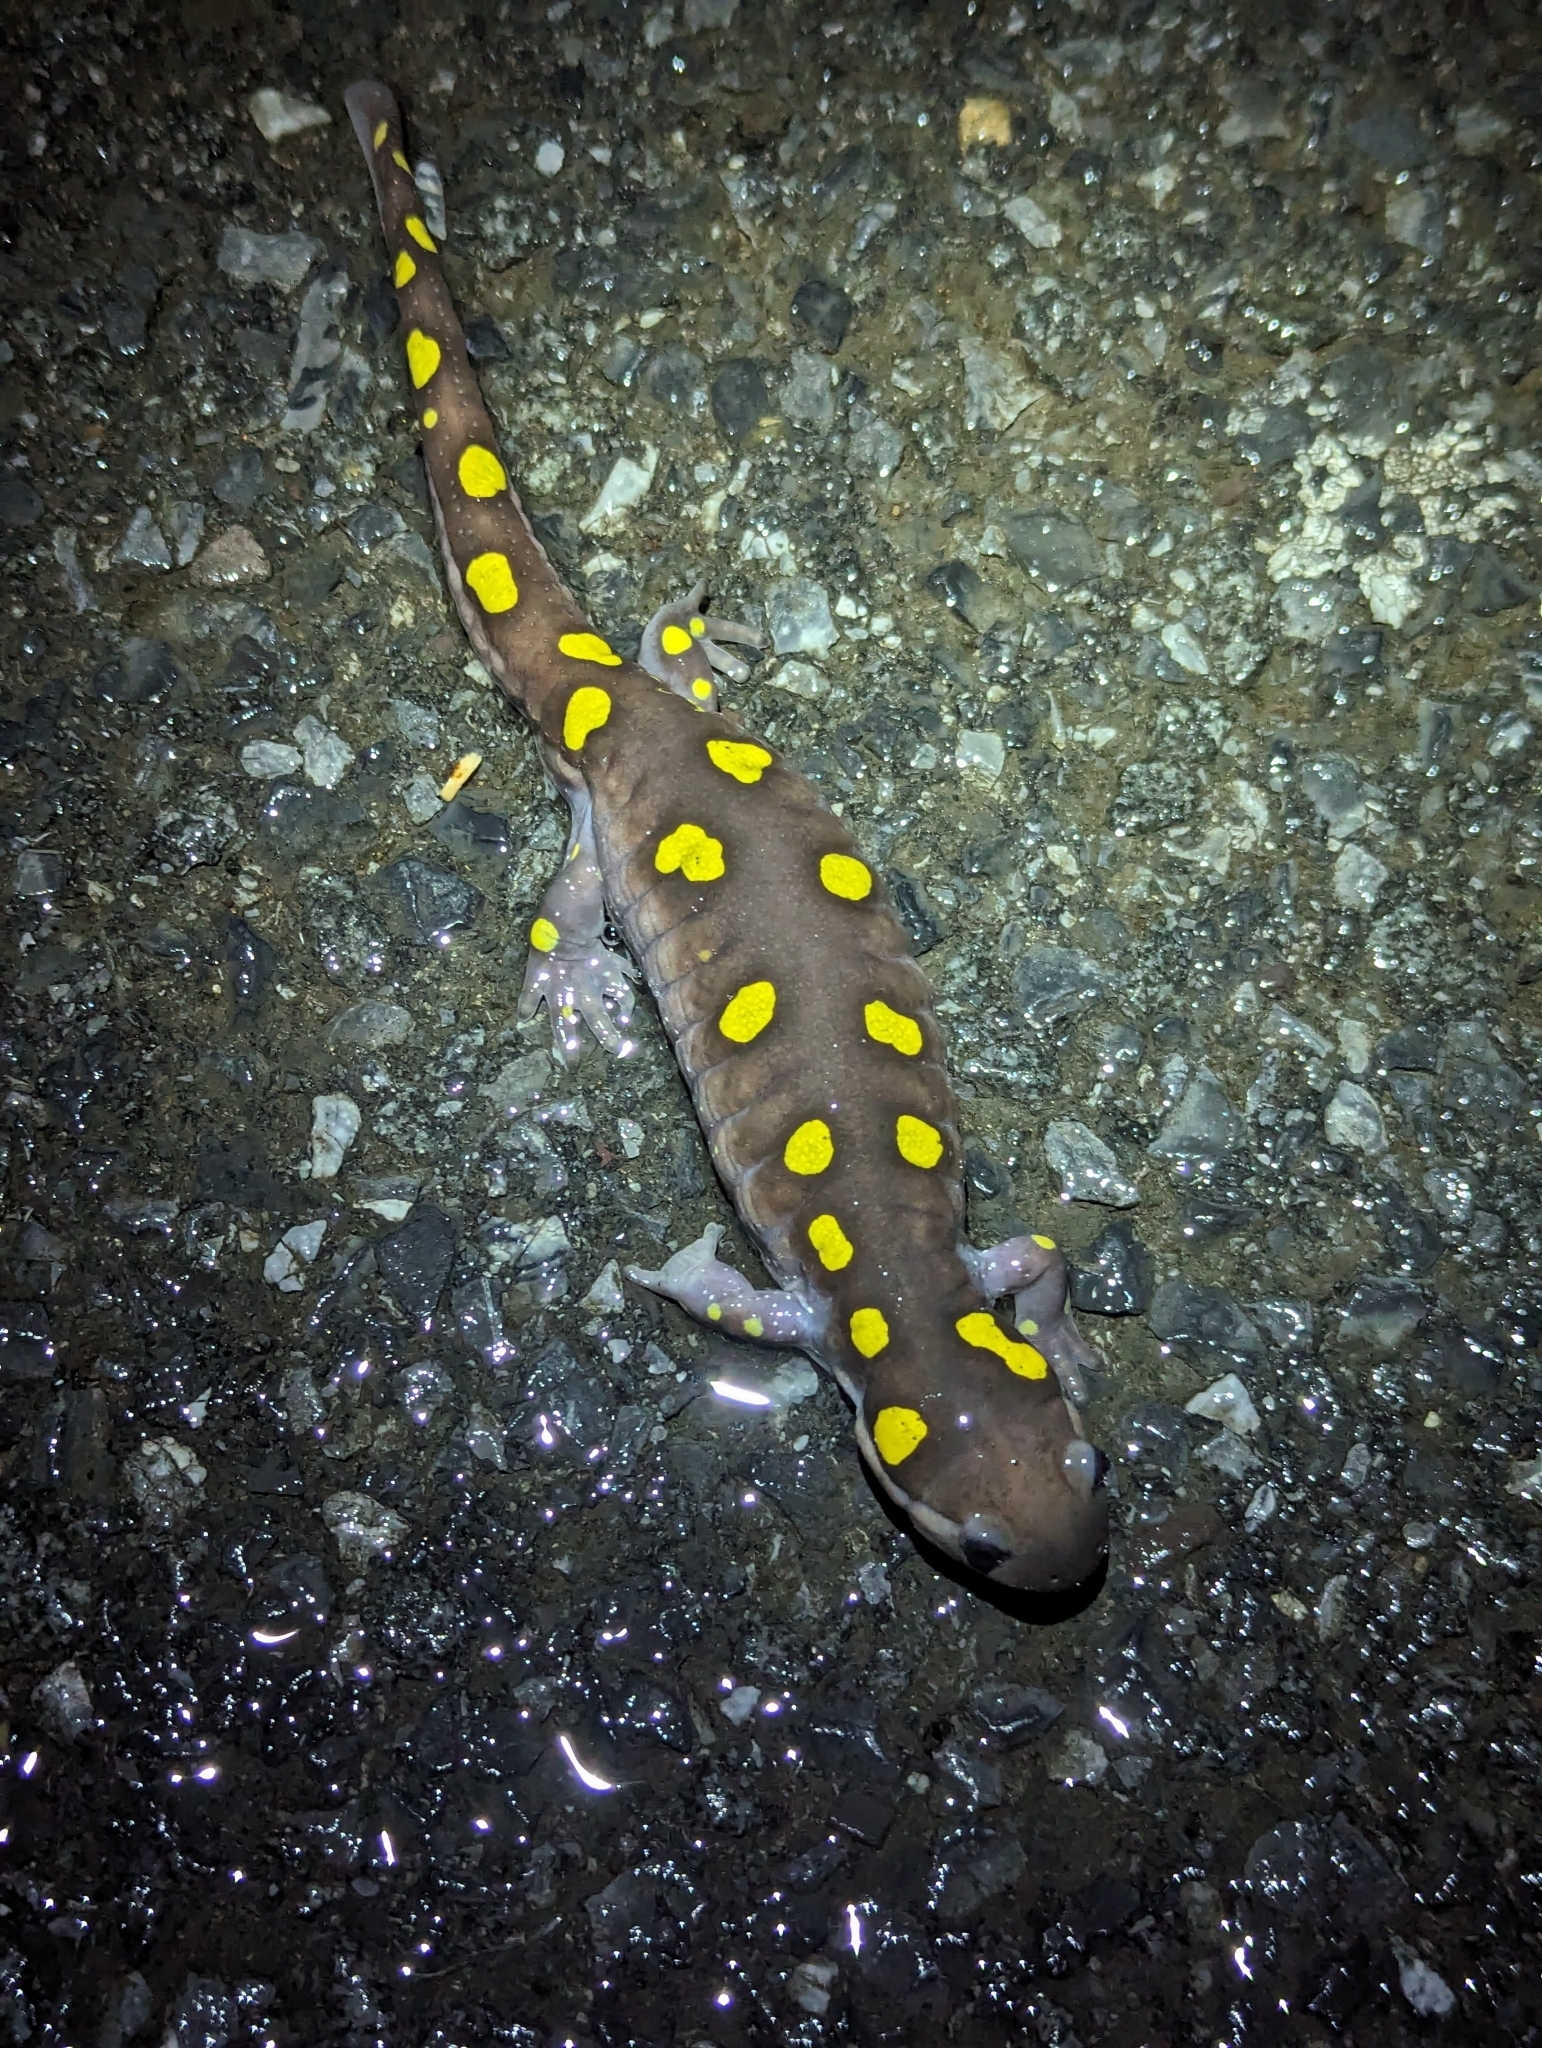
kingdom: Animalia
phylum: Chordata
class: Amphibia
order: Caudata
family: Ambystomatidae
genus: Ambystoma
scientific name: Ambystoma maculatum
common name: Spotted salamander
